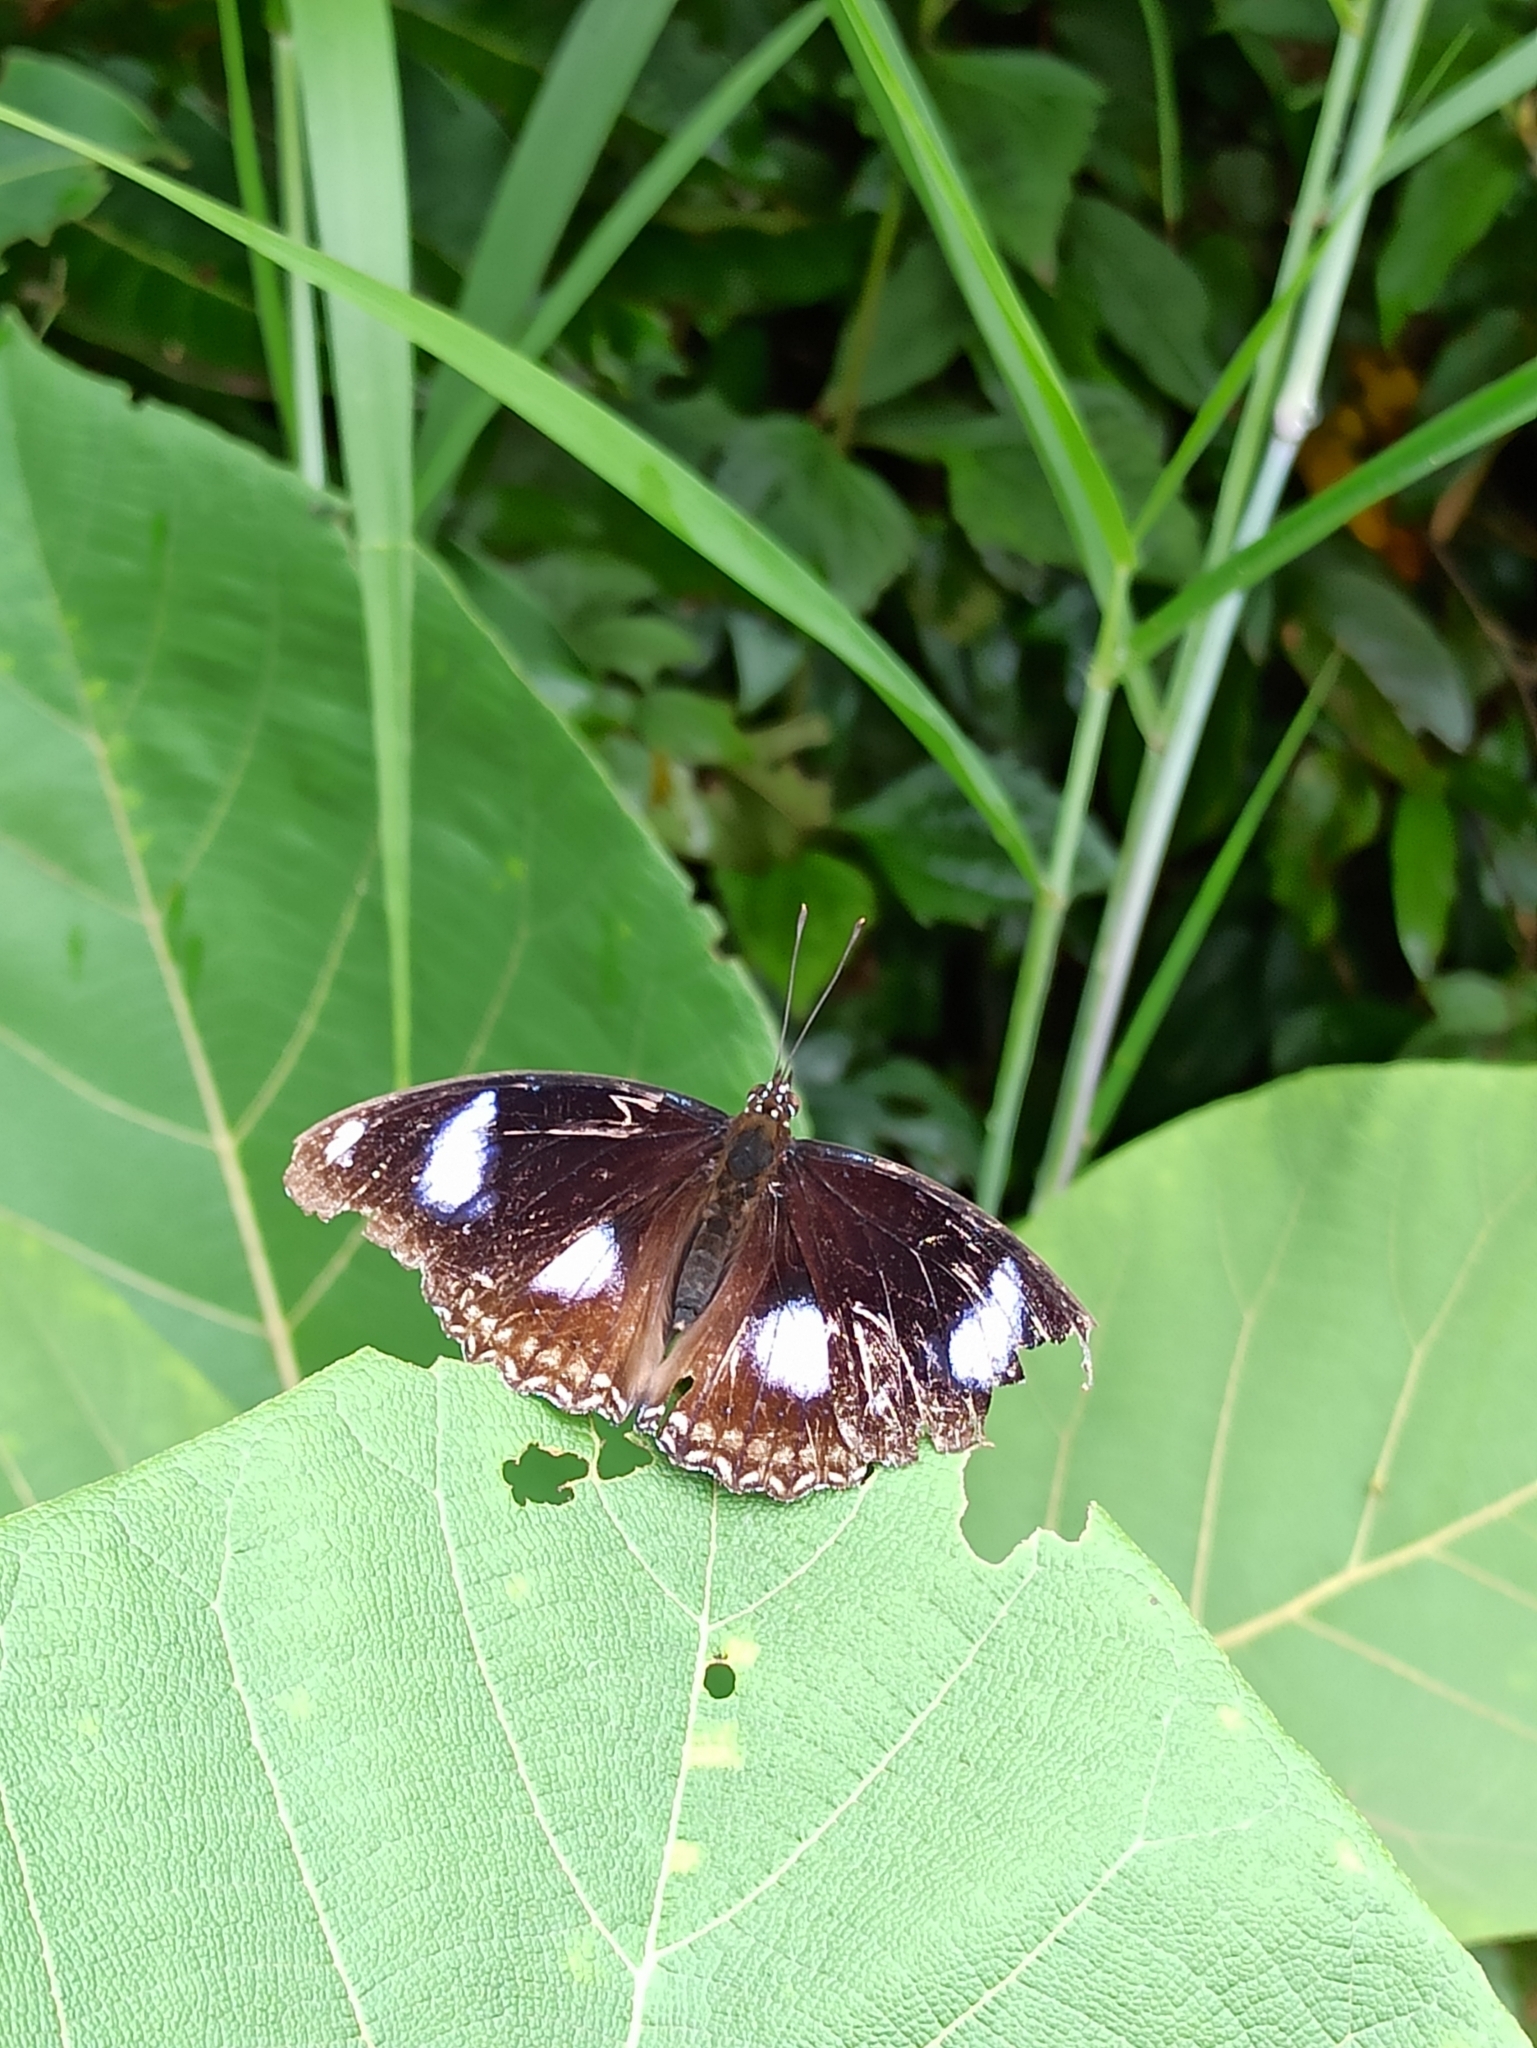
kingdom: Animalia
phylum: Arthropoda
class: Insecta
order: Lepidoptera
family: Nymphalidae
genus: Hypolimnas
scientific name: Hypolimnas bolina
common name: Great eggfly
